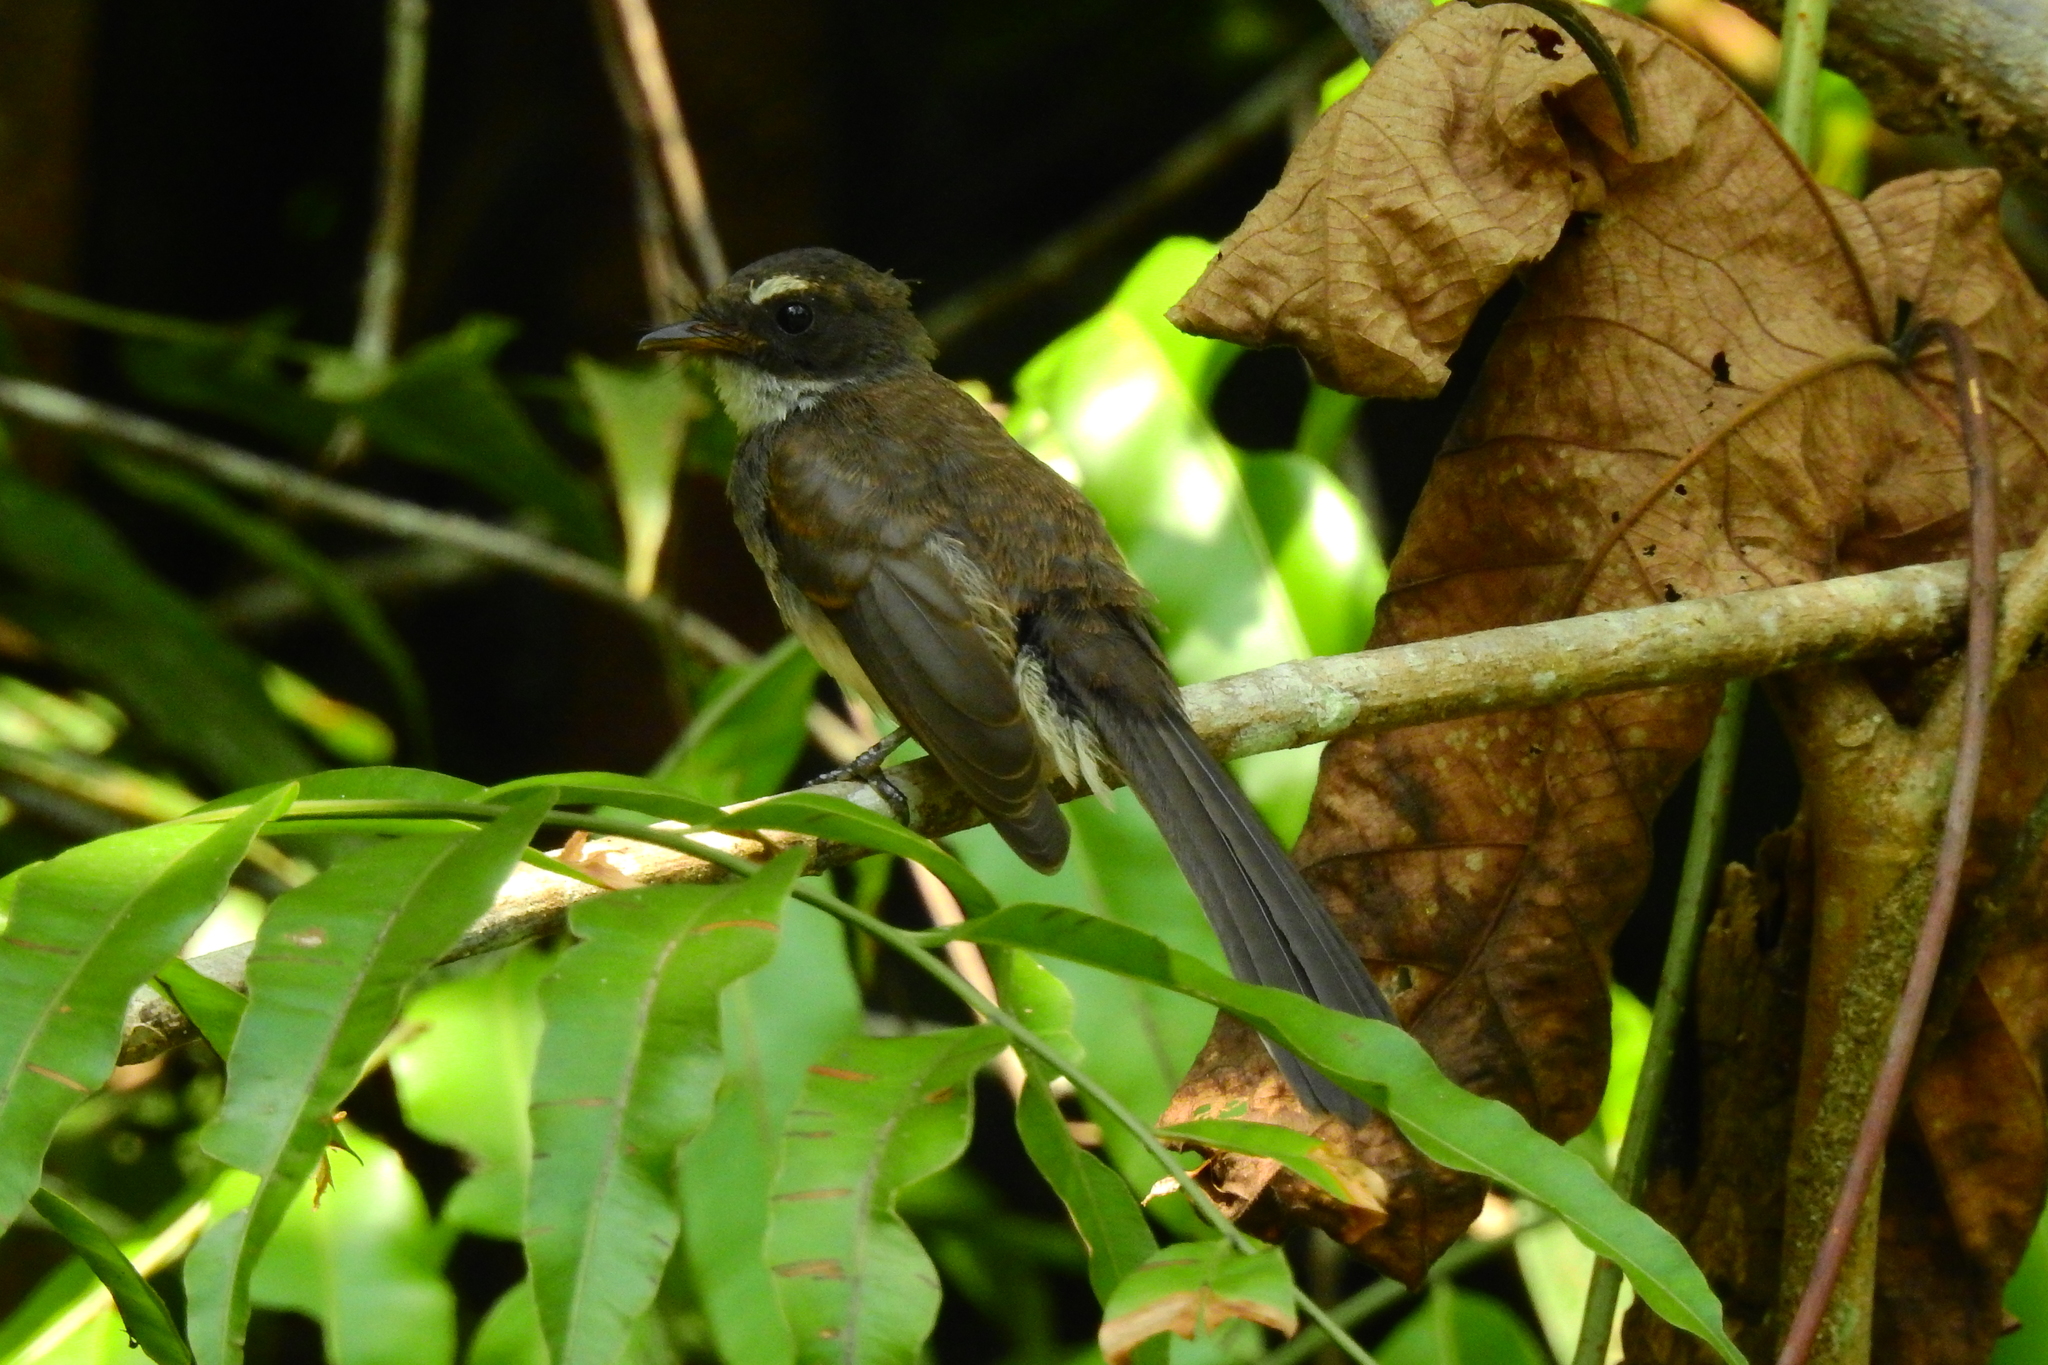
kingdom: Animalia
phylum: Chordata
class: Aves
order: Passeriformes
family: Rhipiduridae
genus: Rhipidura
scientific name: Rhipidura javanica
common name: Pied fantail
